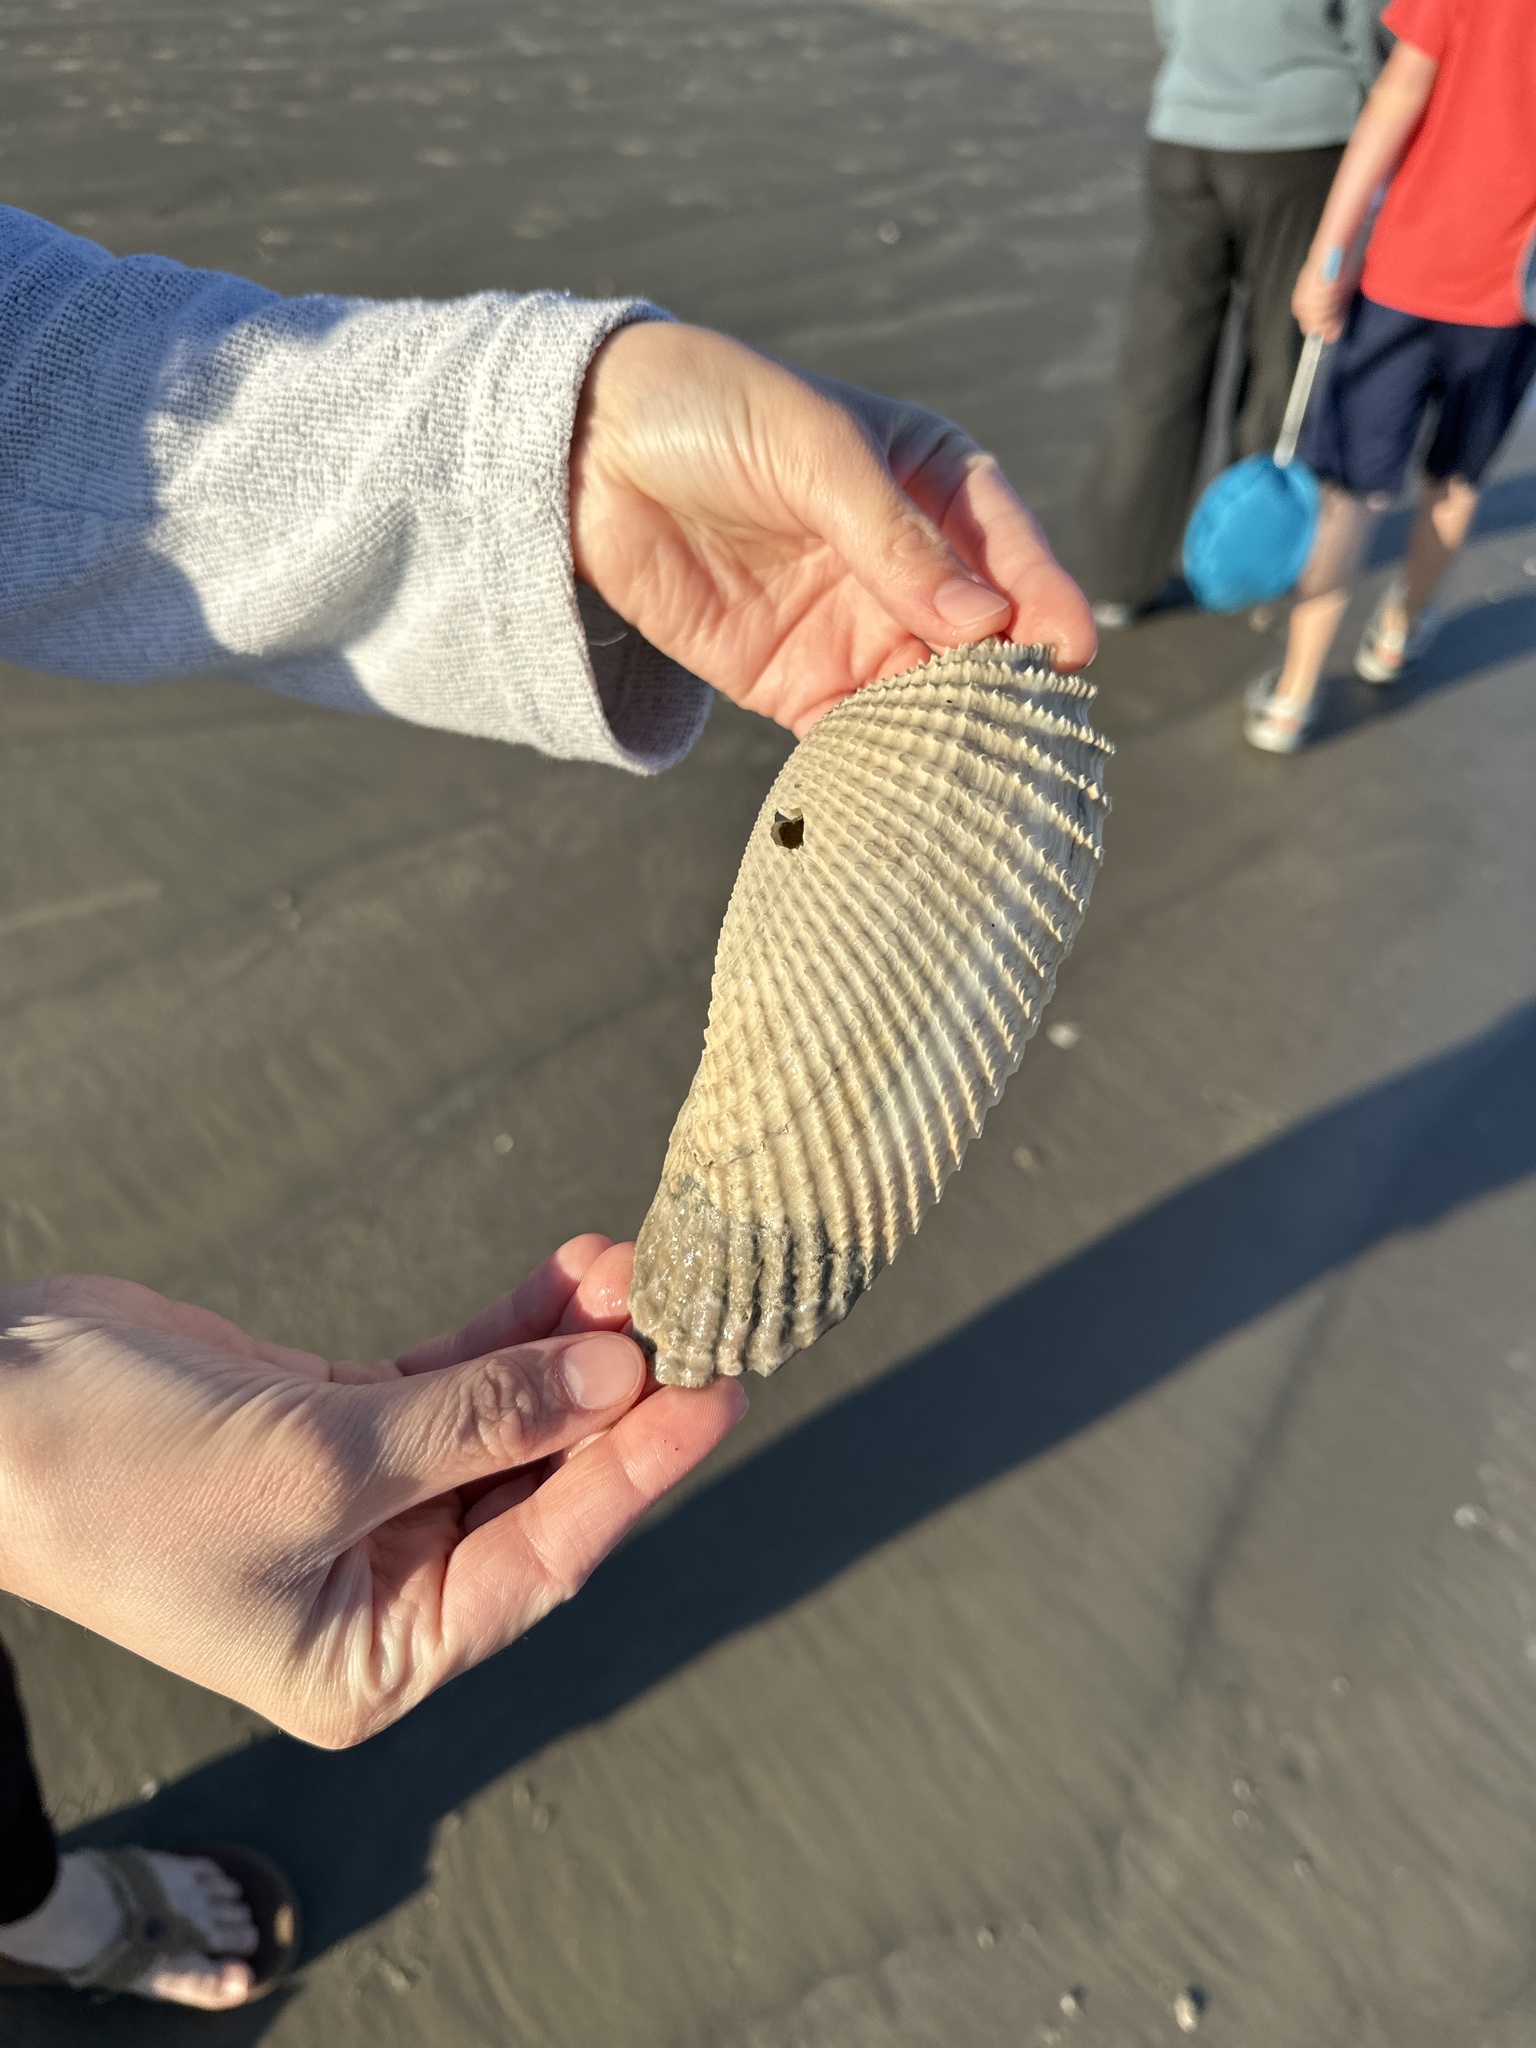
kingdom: Animalia
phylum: Mollusca
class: Bivalvia
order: Myida
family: Pholadidae
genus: Cyrtopleura
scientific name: Cyrtopleura costata
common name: Angel wing
